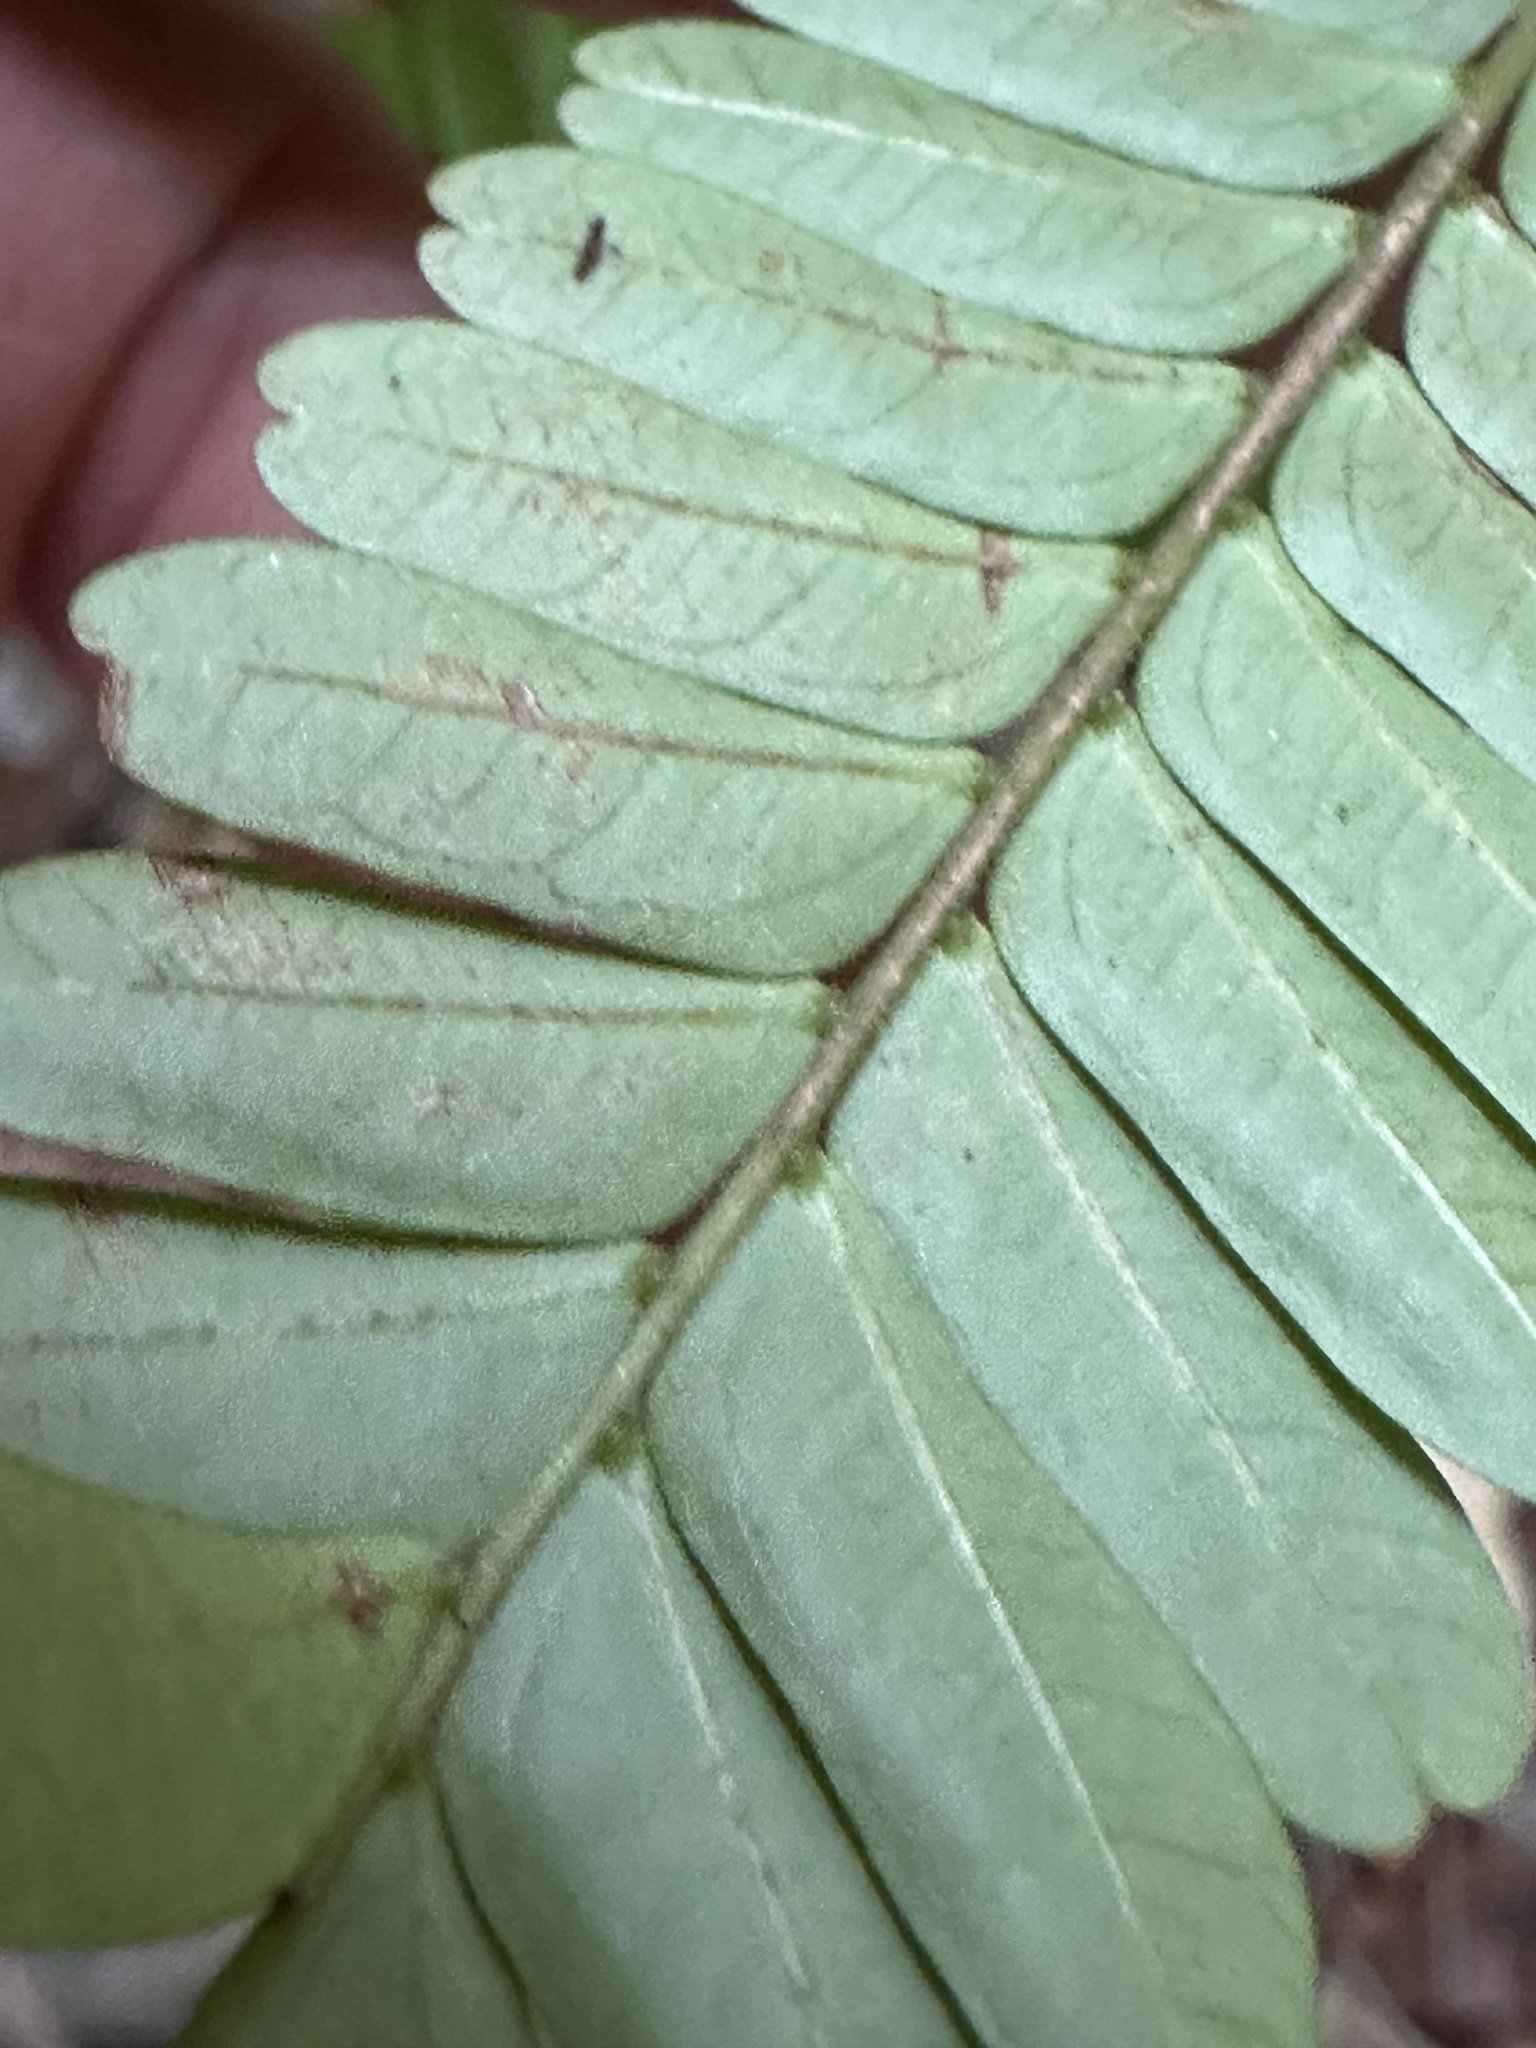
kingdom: Plantae
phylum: Tracheophyta
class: Magnoliopsida
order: Oxalidales
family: Connaraceae
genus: Rourea
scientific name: Rourea aspleniifolia
